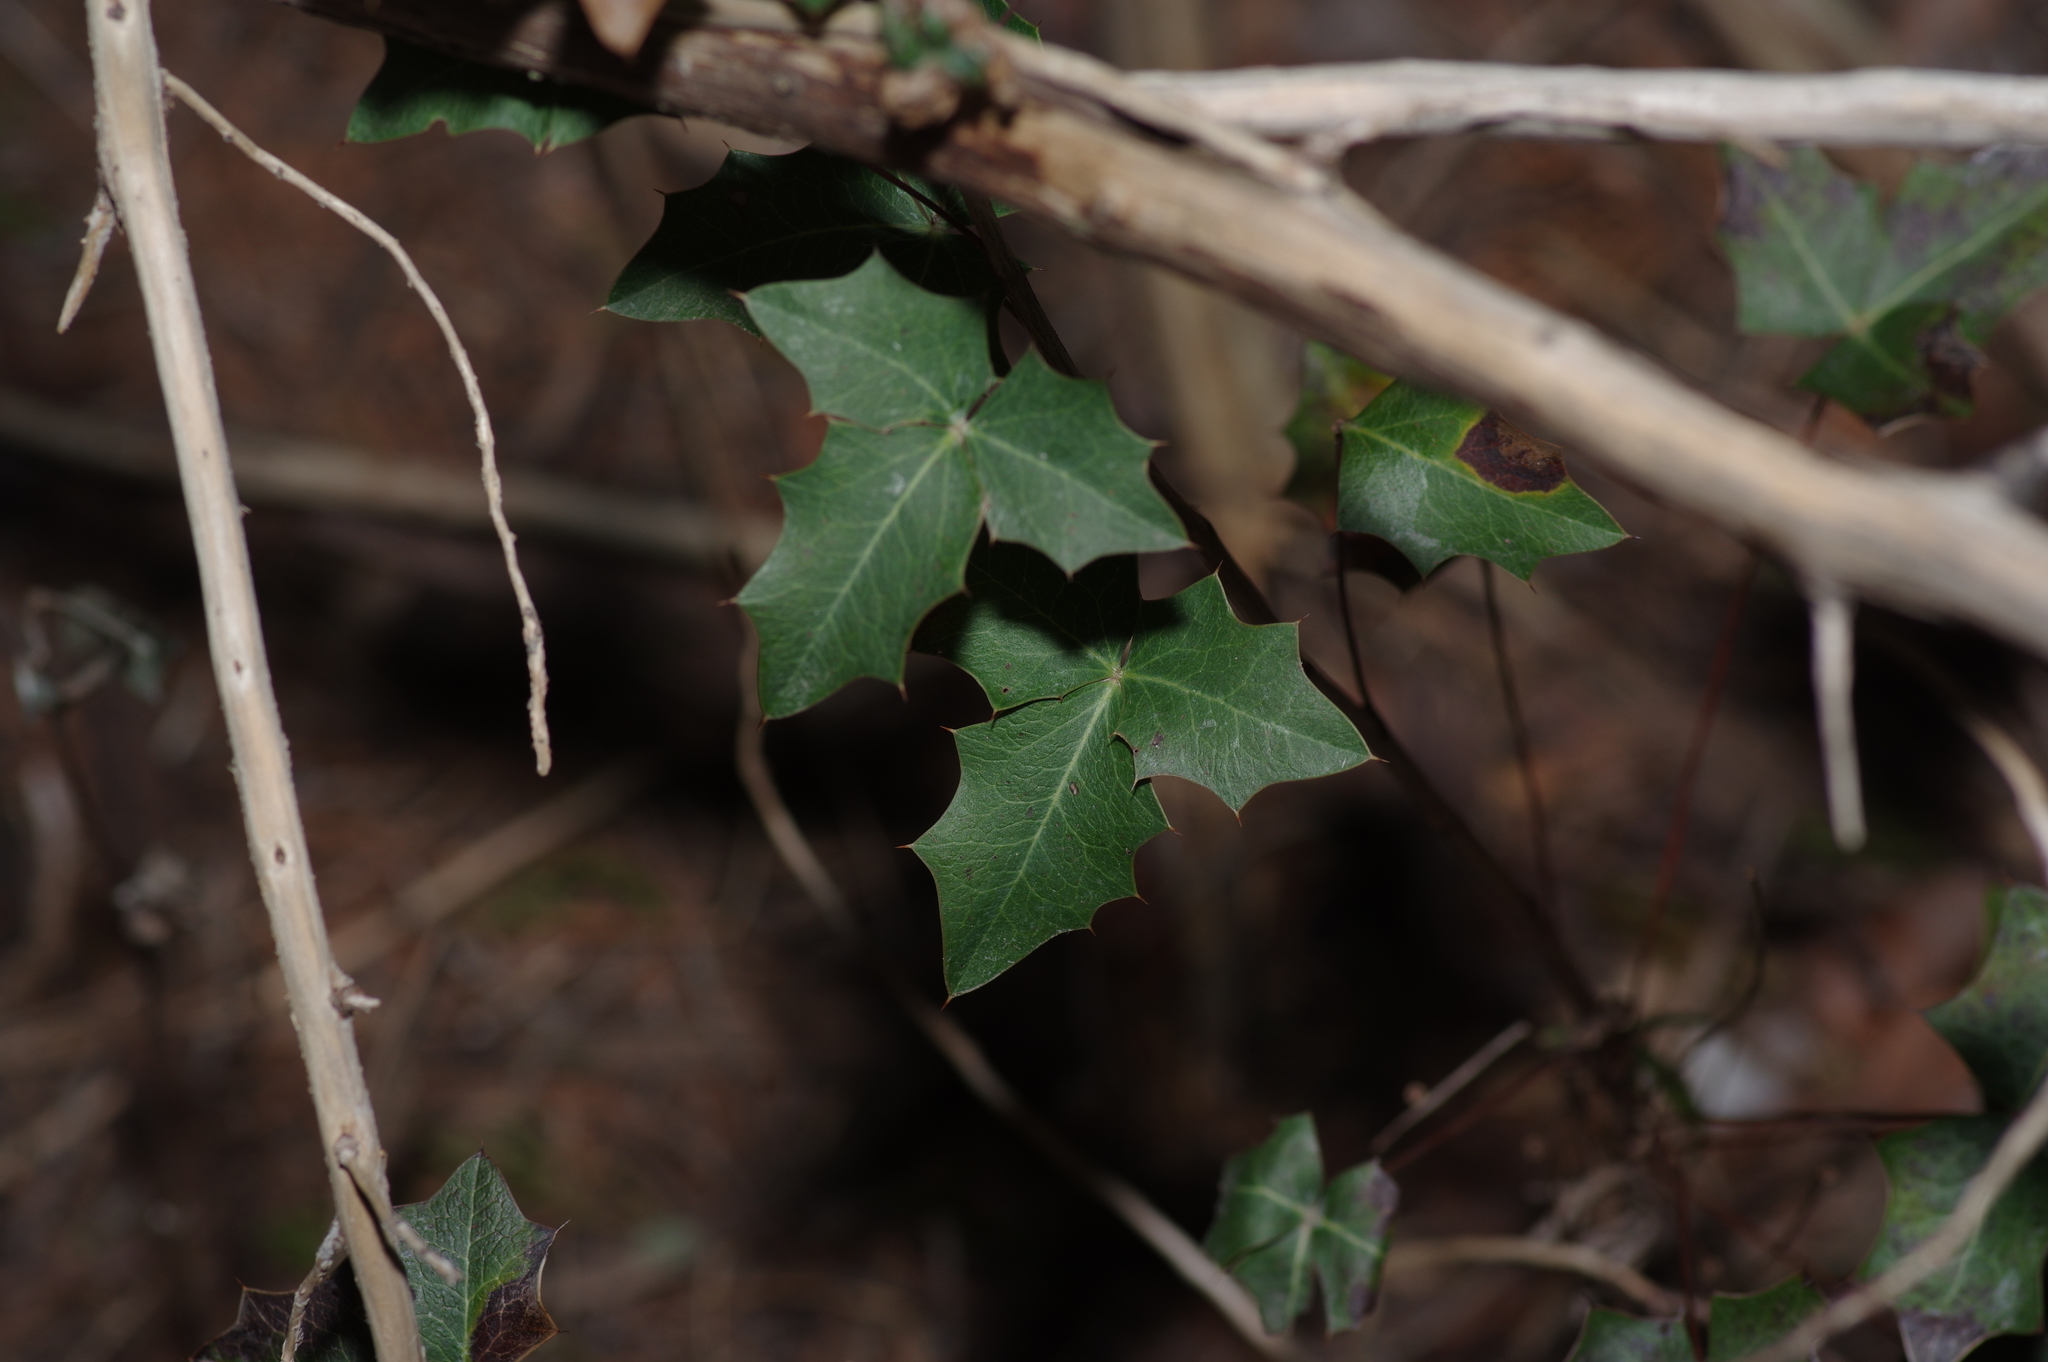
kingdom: Plantae
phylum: Tracheophyta
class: Magnoliopsida
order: Ranunculales
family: Berberidaceae
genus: Alloberberis
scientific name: Alloberberis trifoliolata
